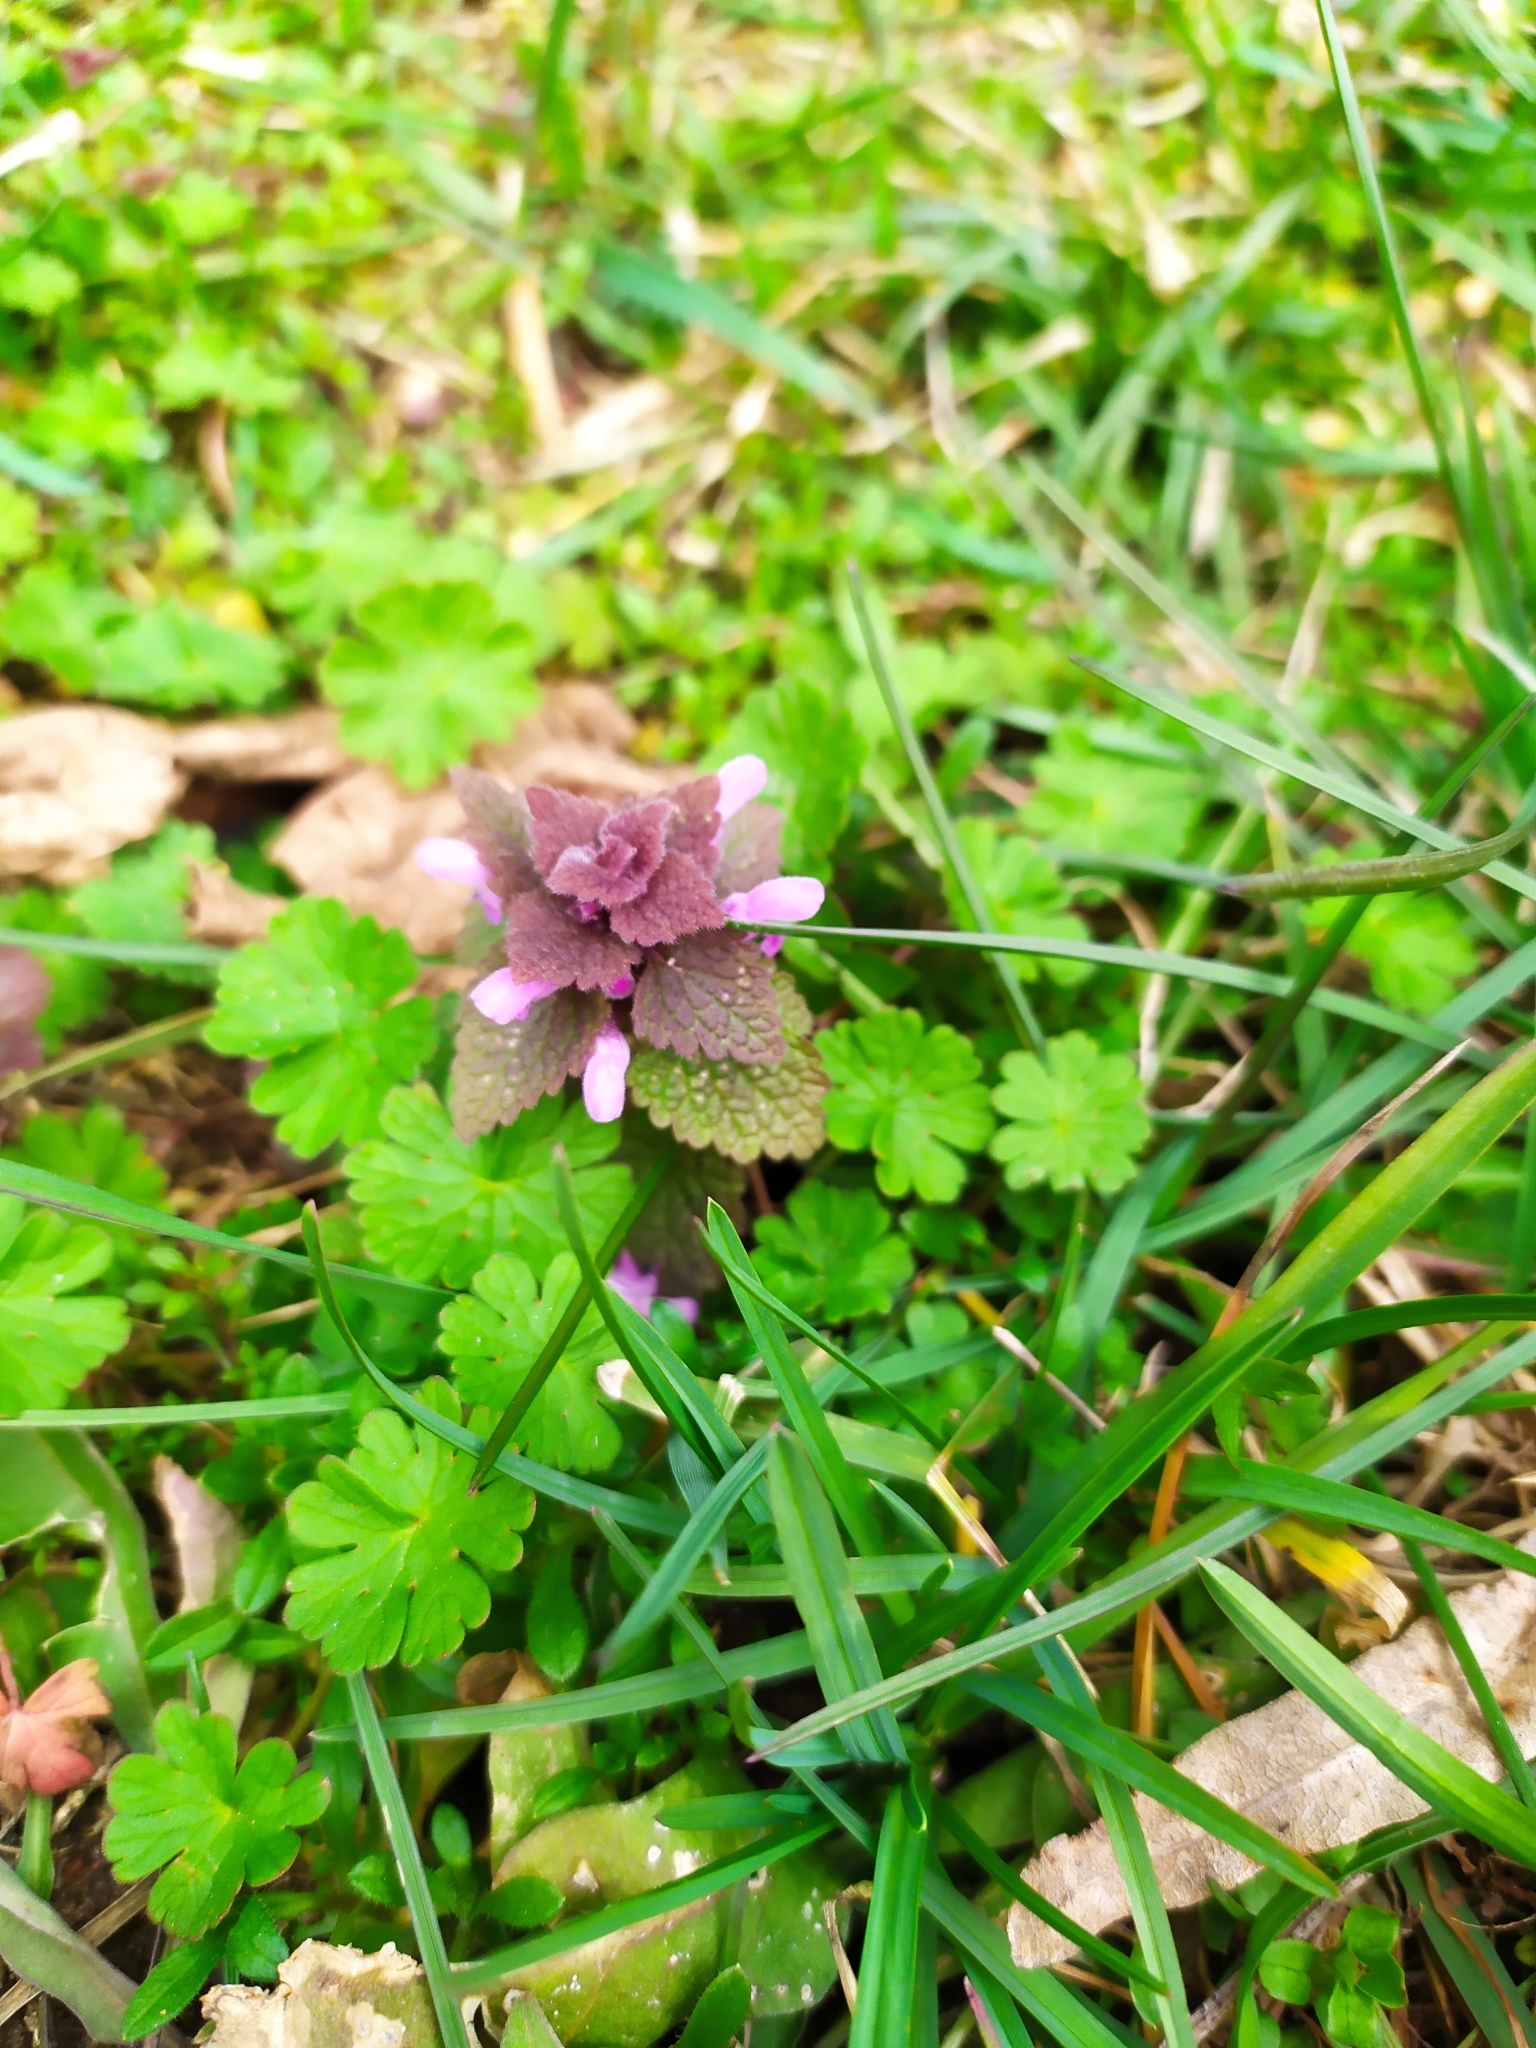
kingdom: Plantae
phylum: Tracheophyta
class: Magnoliopsida
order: Lamiales
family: Lamiaceae
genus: Lamium
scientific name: Lamium purpureum
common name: Red dead-nettle
